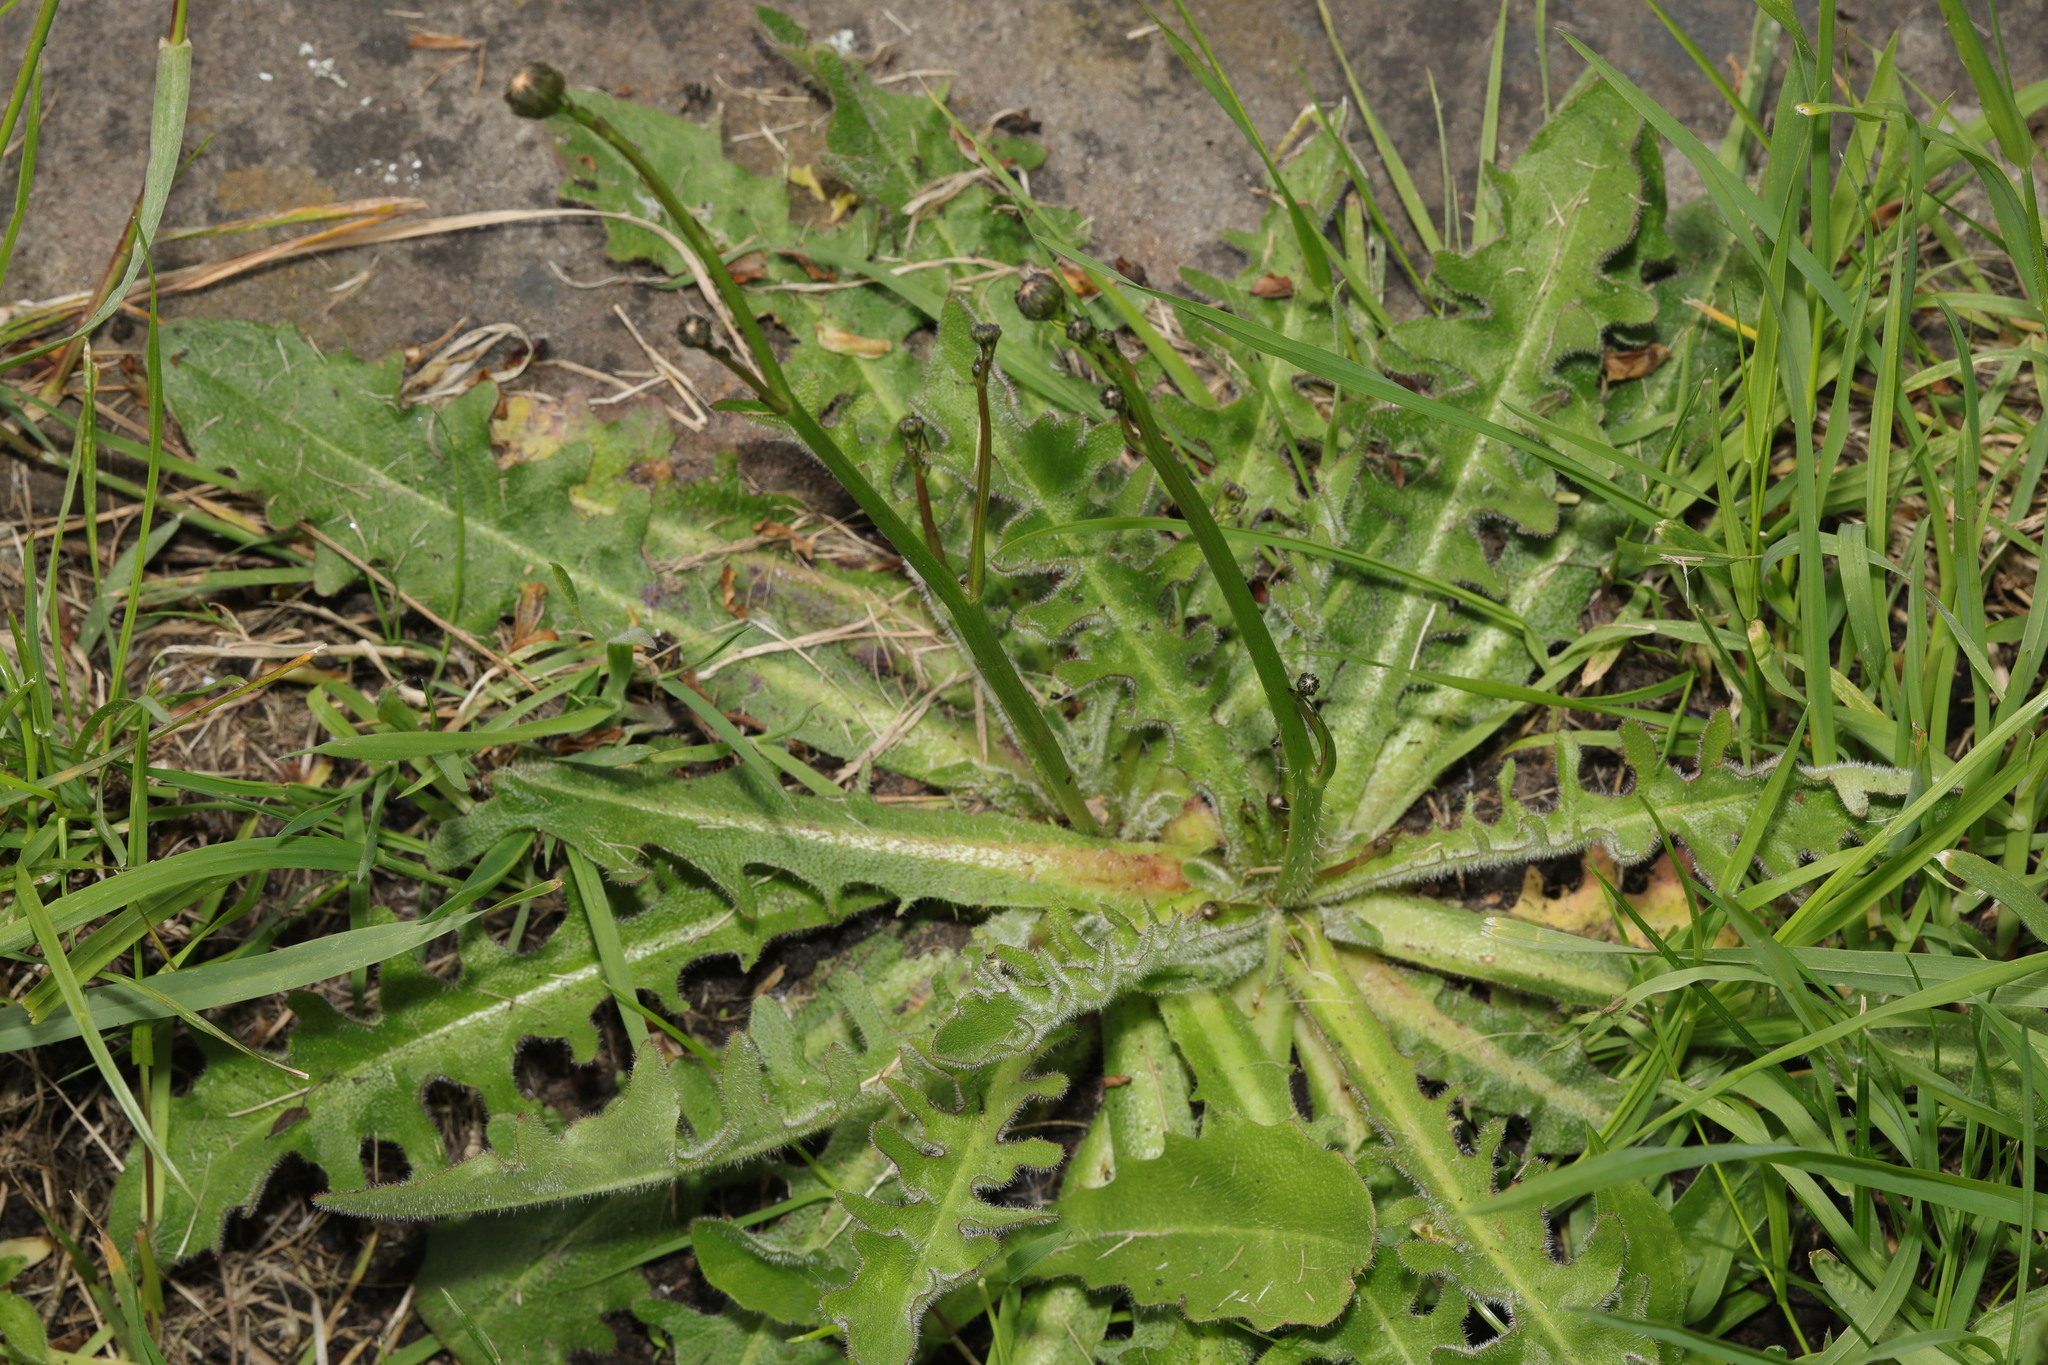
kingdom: Plantae
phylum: Tracheophyta
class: Magnoliopsida
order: Asterales
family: Asteraceae
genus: Hypochaeris
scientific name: Hypochaeris radicata
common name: Flatweed
